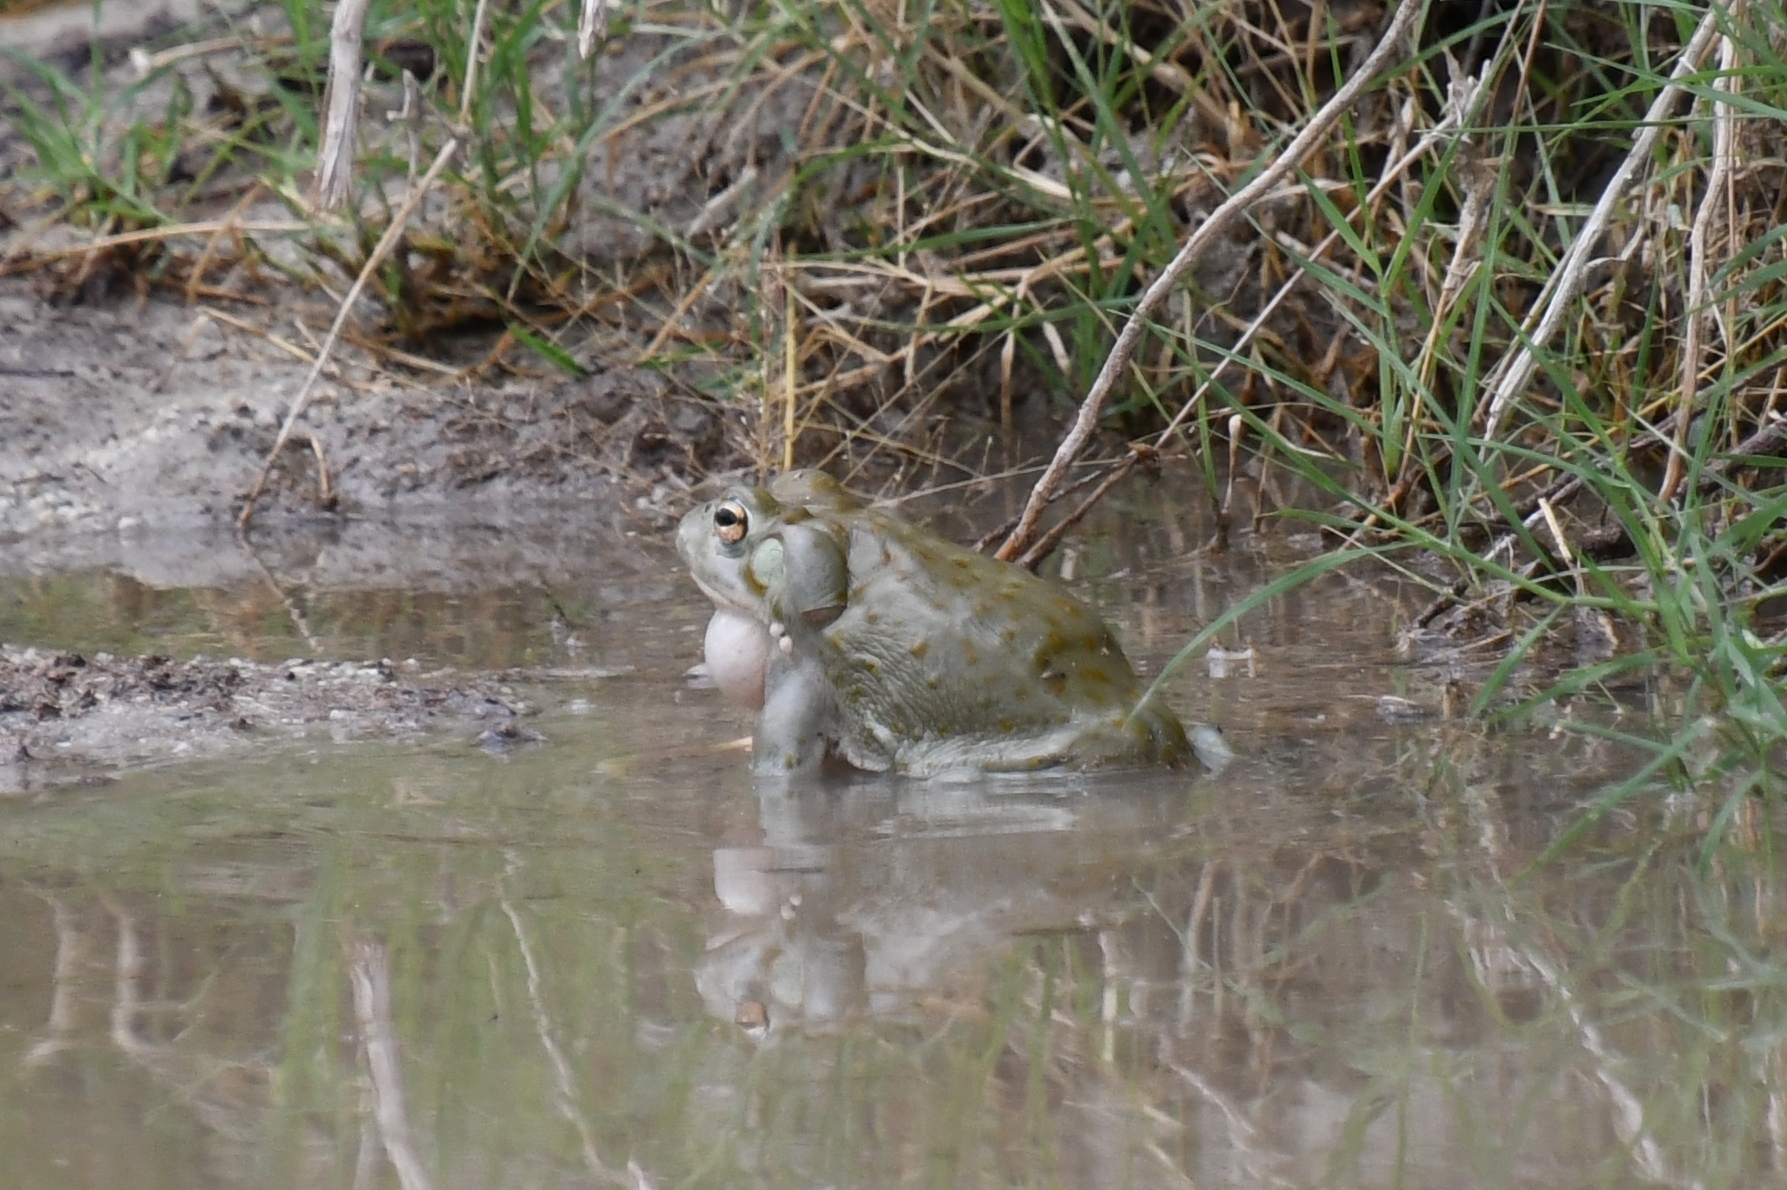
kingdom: Animalia
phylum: Chordata
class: Amphibia
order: Anura
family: Bufonidae
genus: Incilius
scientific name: Incilius alvarius
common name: Sonoran desert toad
